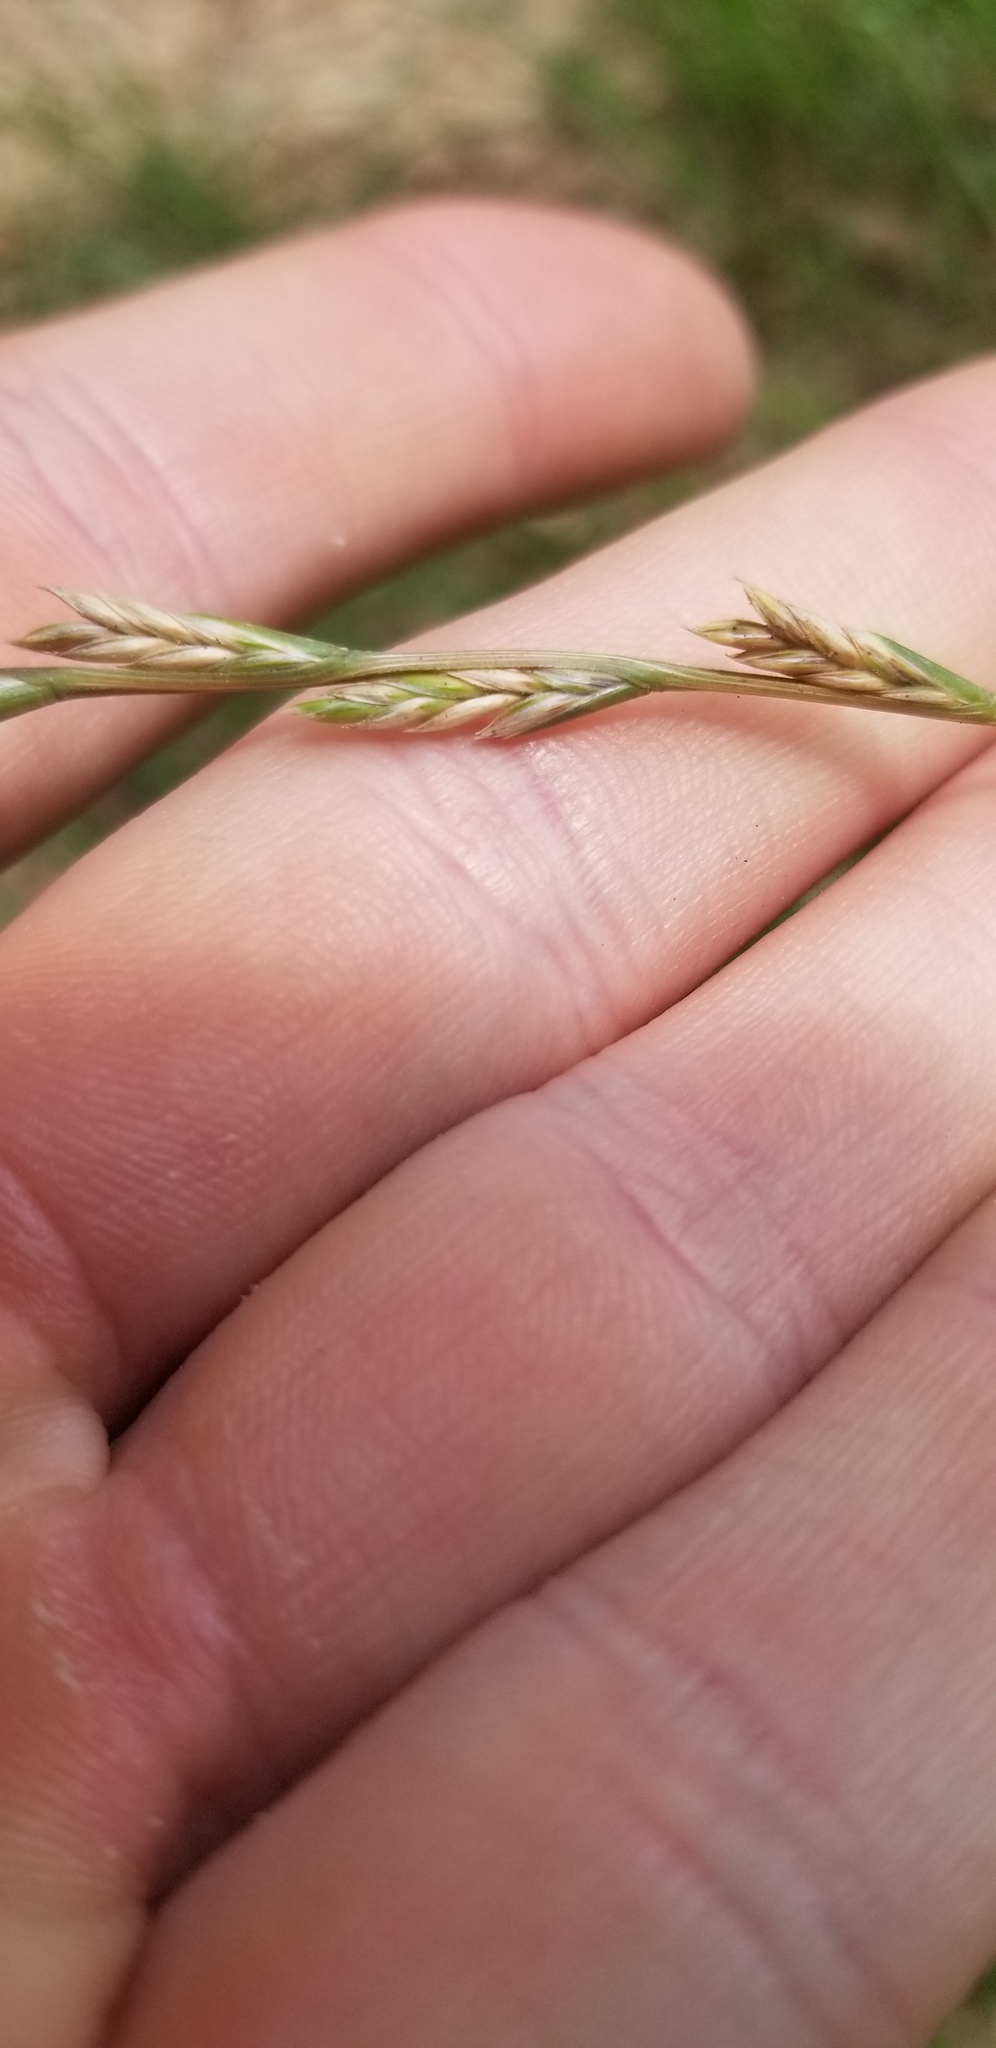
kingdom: Plantae
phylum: Tracheophyta
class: Liliopsida
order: Poales
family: Poaceae
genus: Lolium
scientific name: Lolium perenne
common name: Perennial ryegrass
